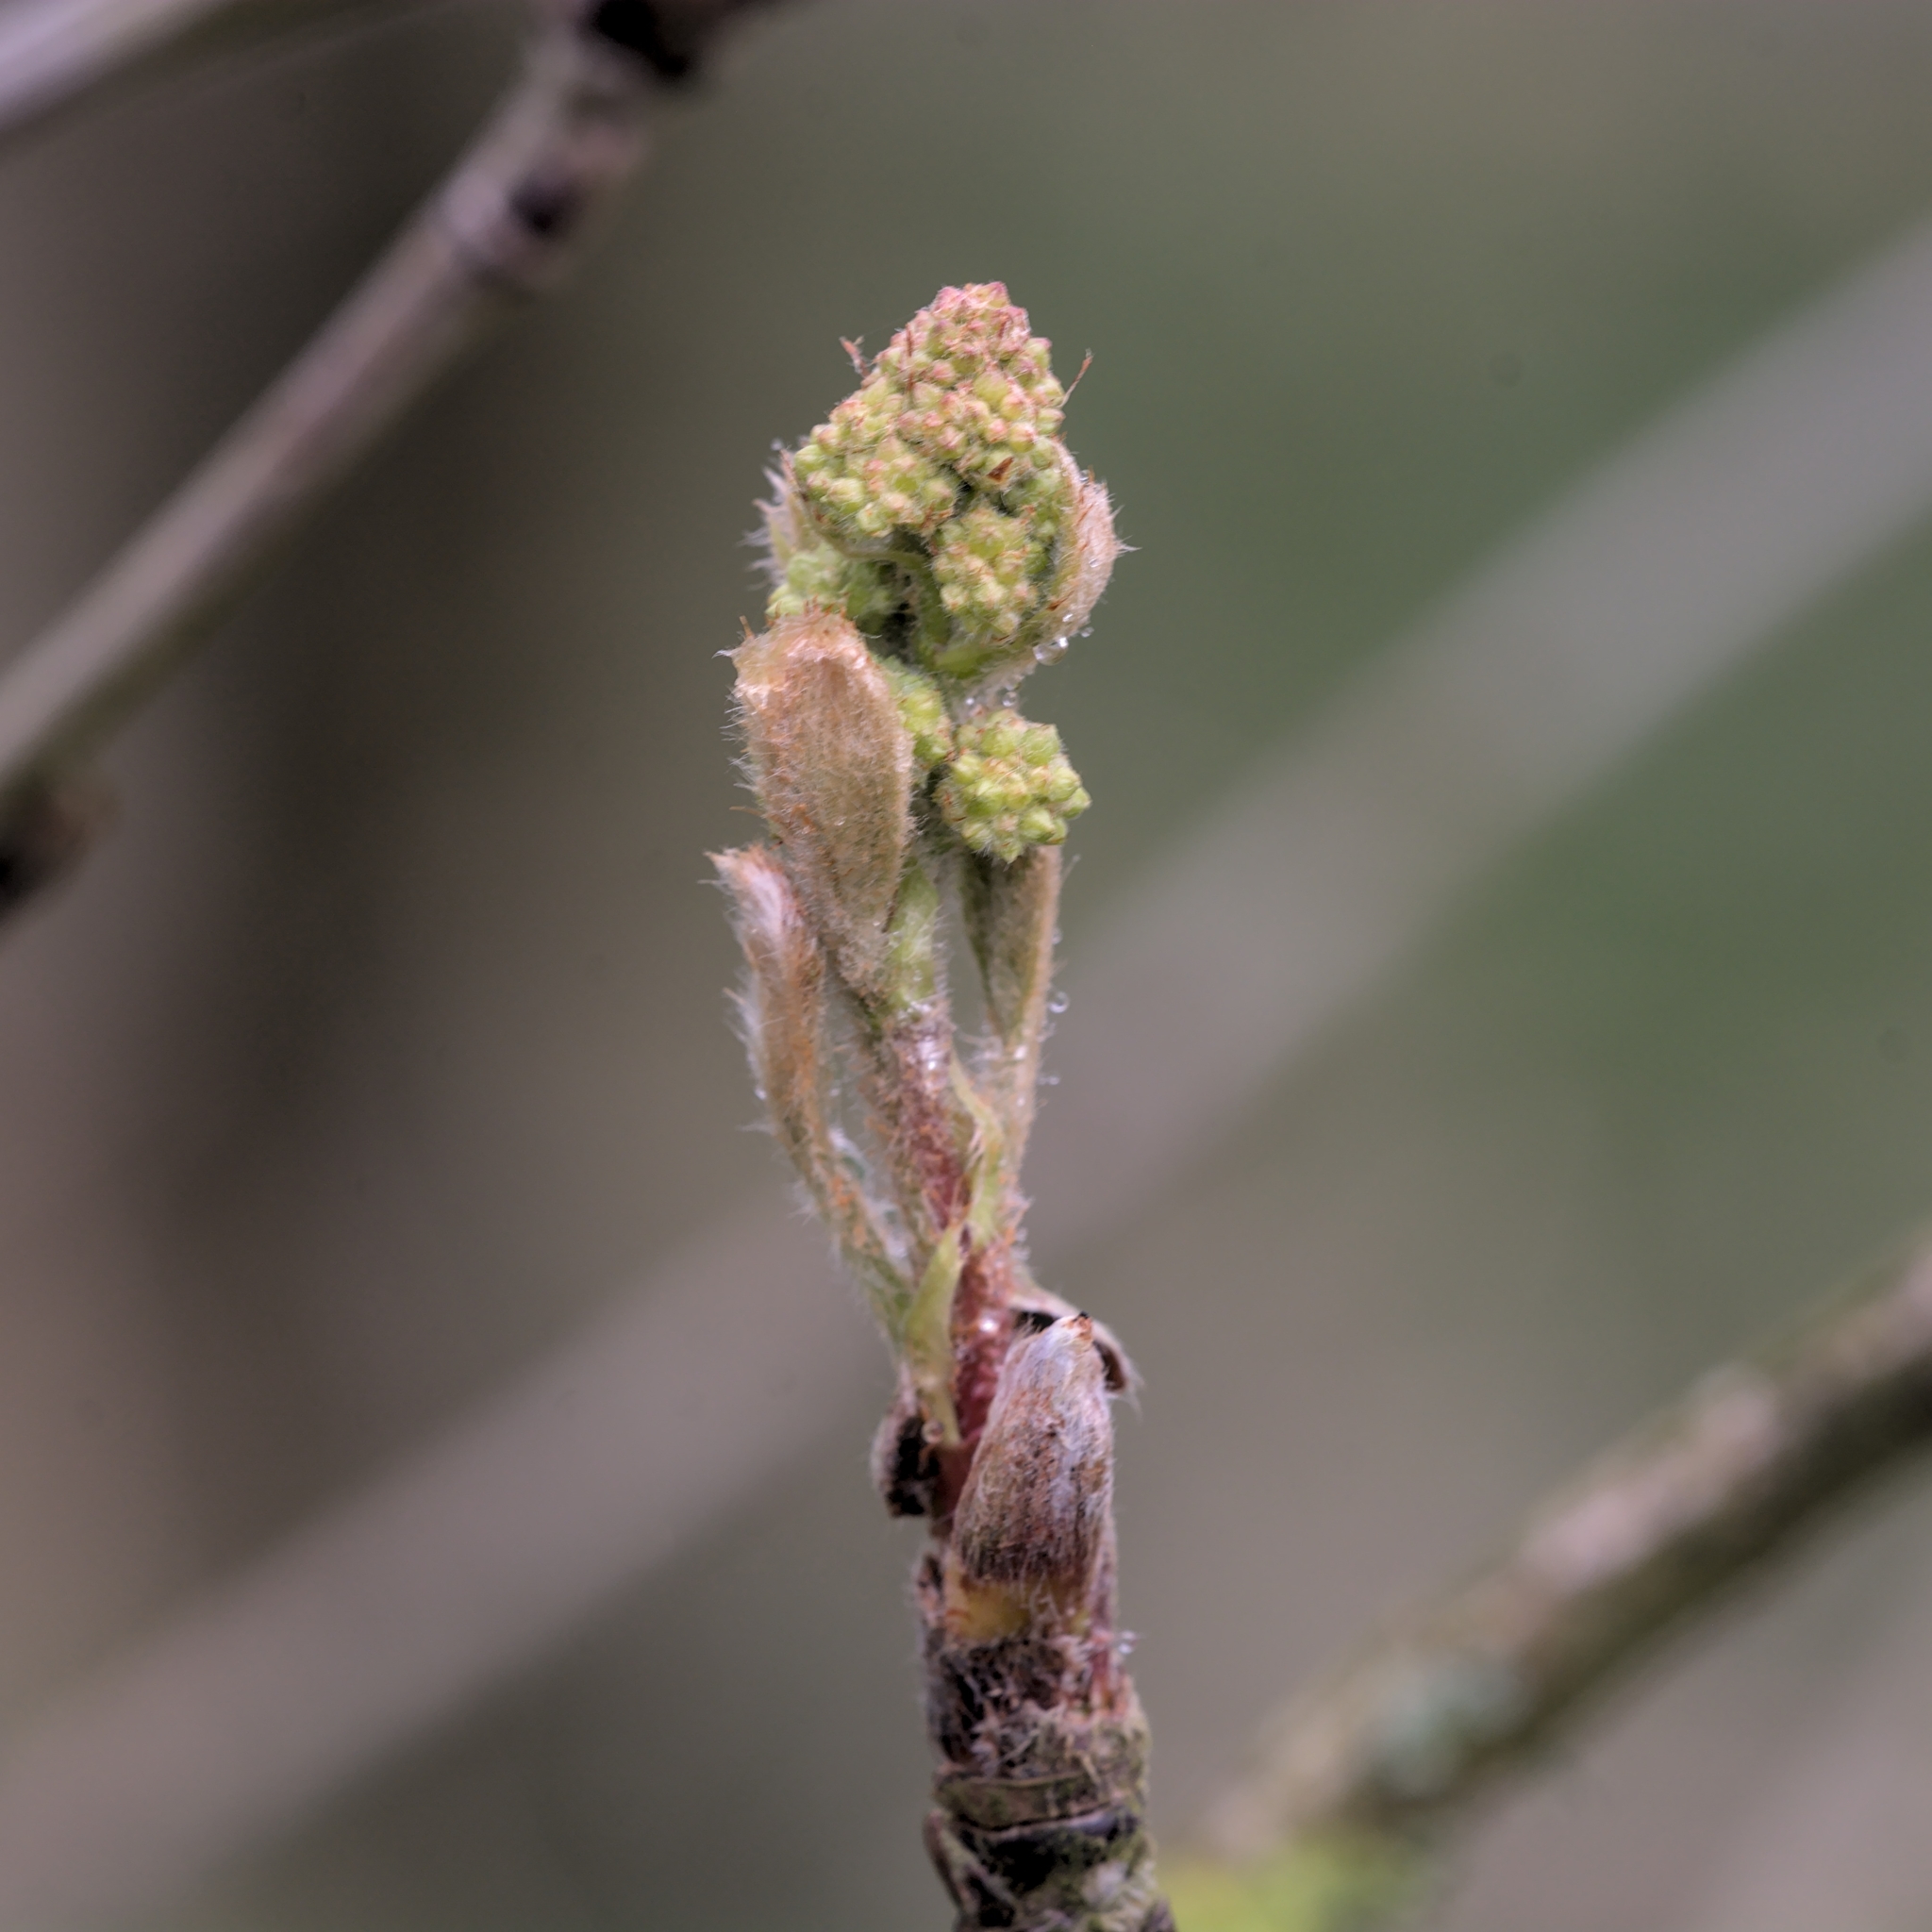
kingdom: Plantae
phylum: Tracheophyta
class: Magnoliopsida
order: Rosales
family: Rosaceae
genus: Sorbus
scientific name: Sorbus aucuparia
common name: Rowan
